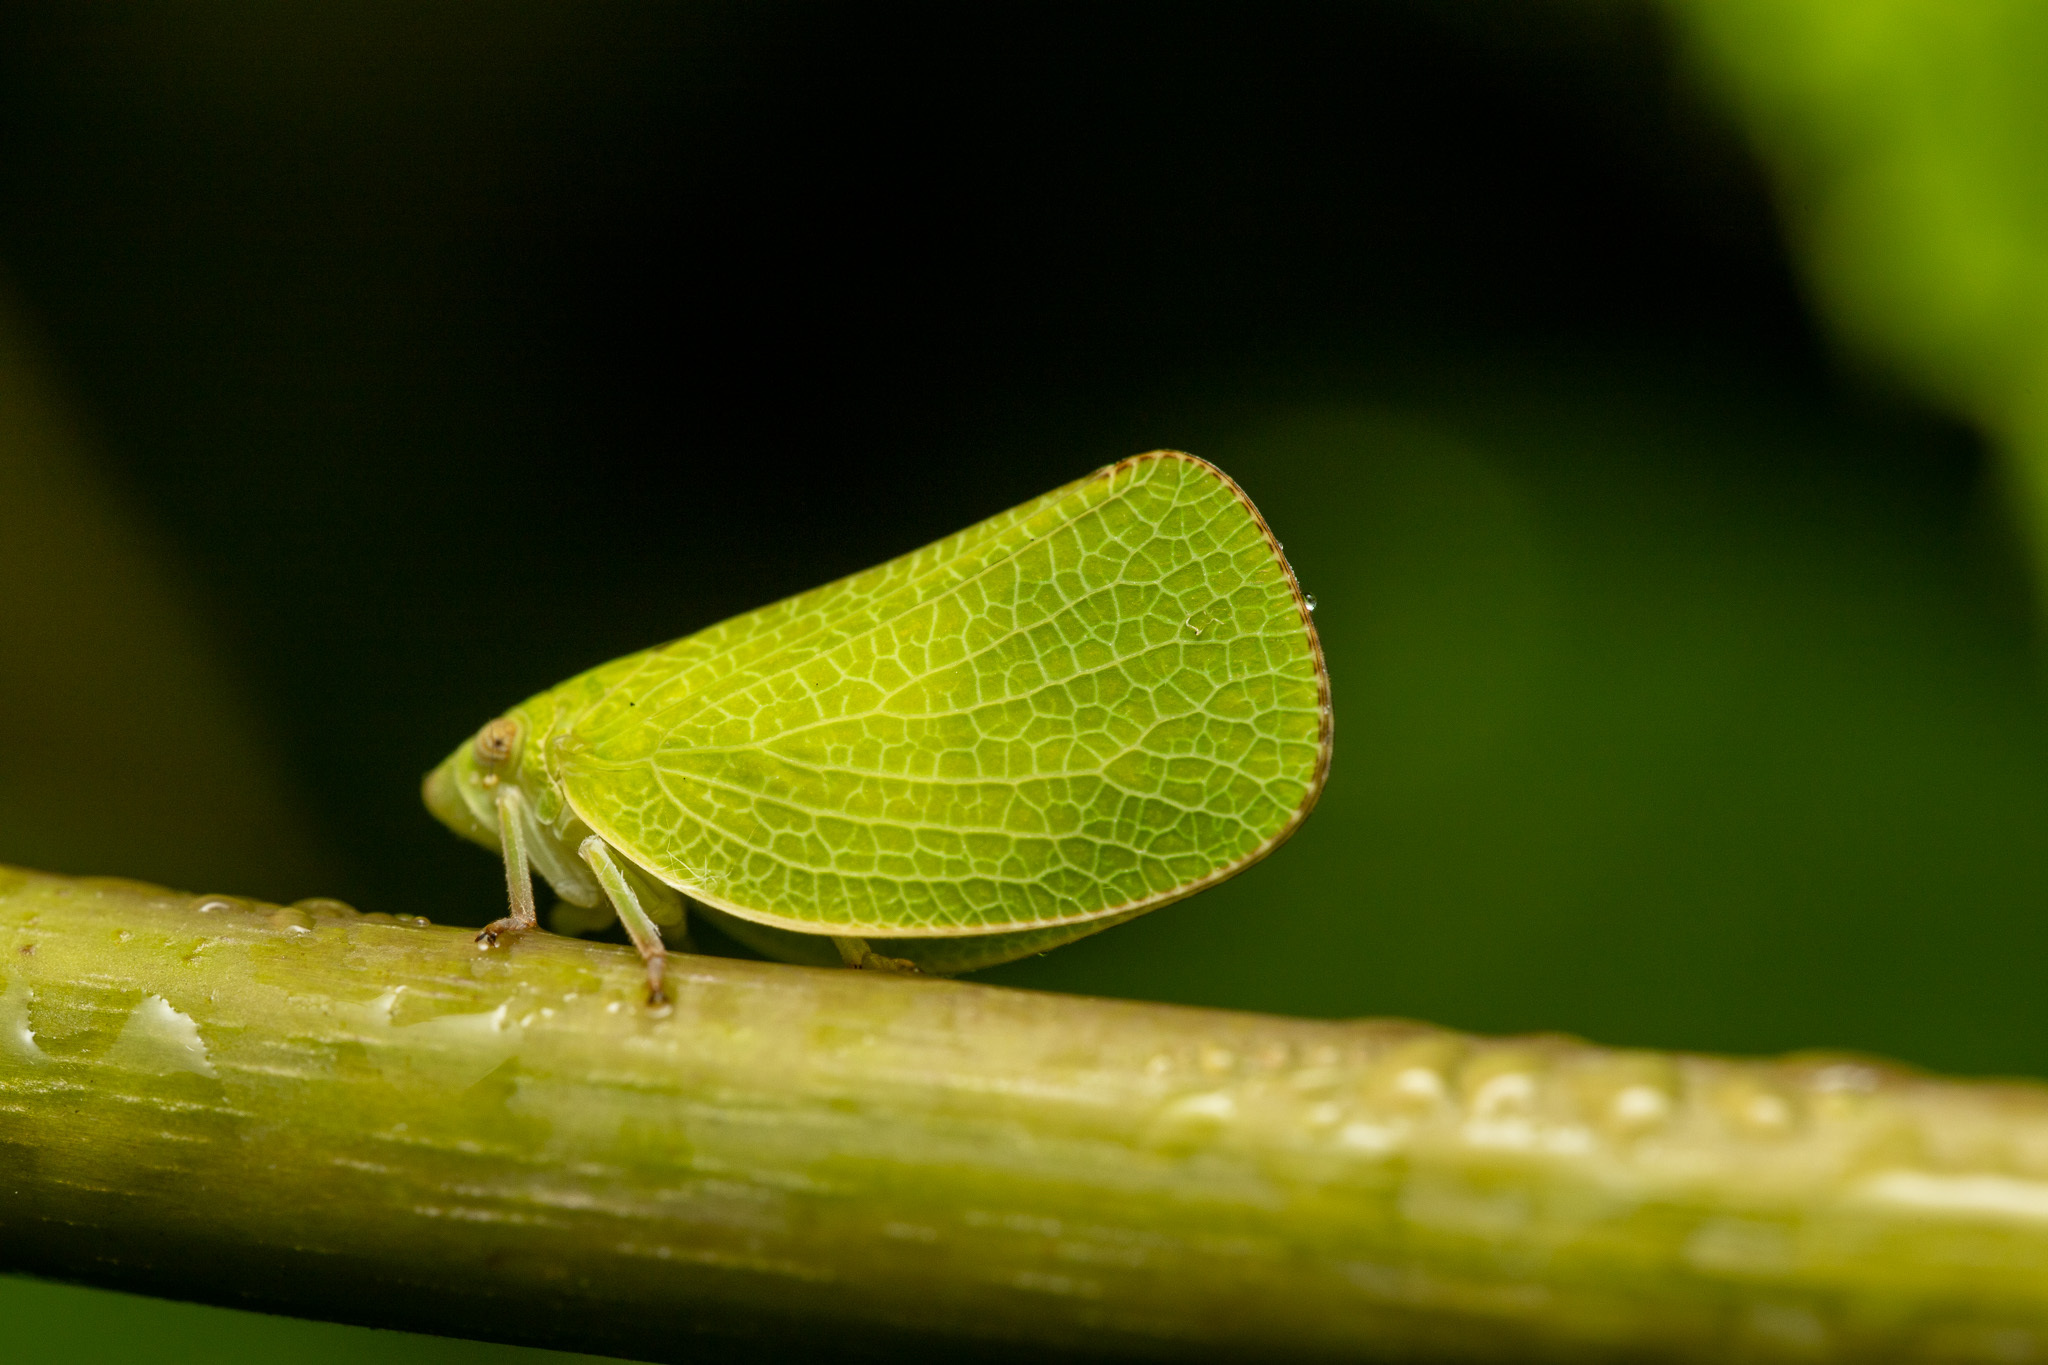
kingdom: Animalia
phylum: Arthropoda
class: Insecta
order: Hemiptera
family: Acanaloniidae
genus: Acanalonia
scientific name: Acanalonia conica
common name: Green cone-headed planthopper
